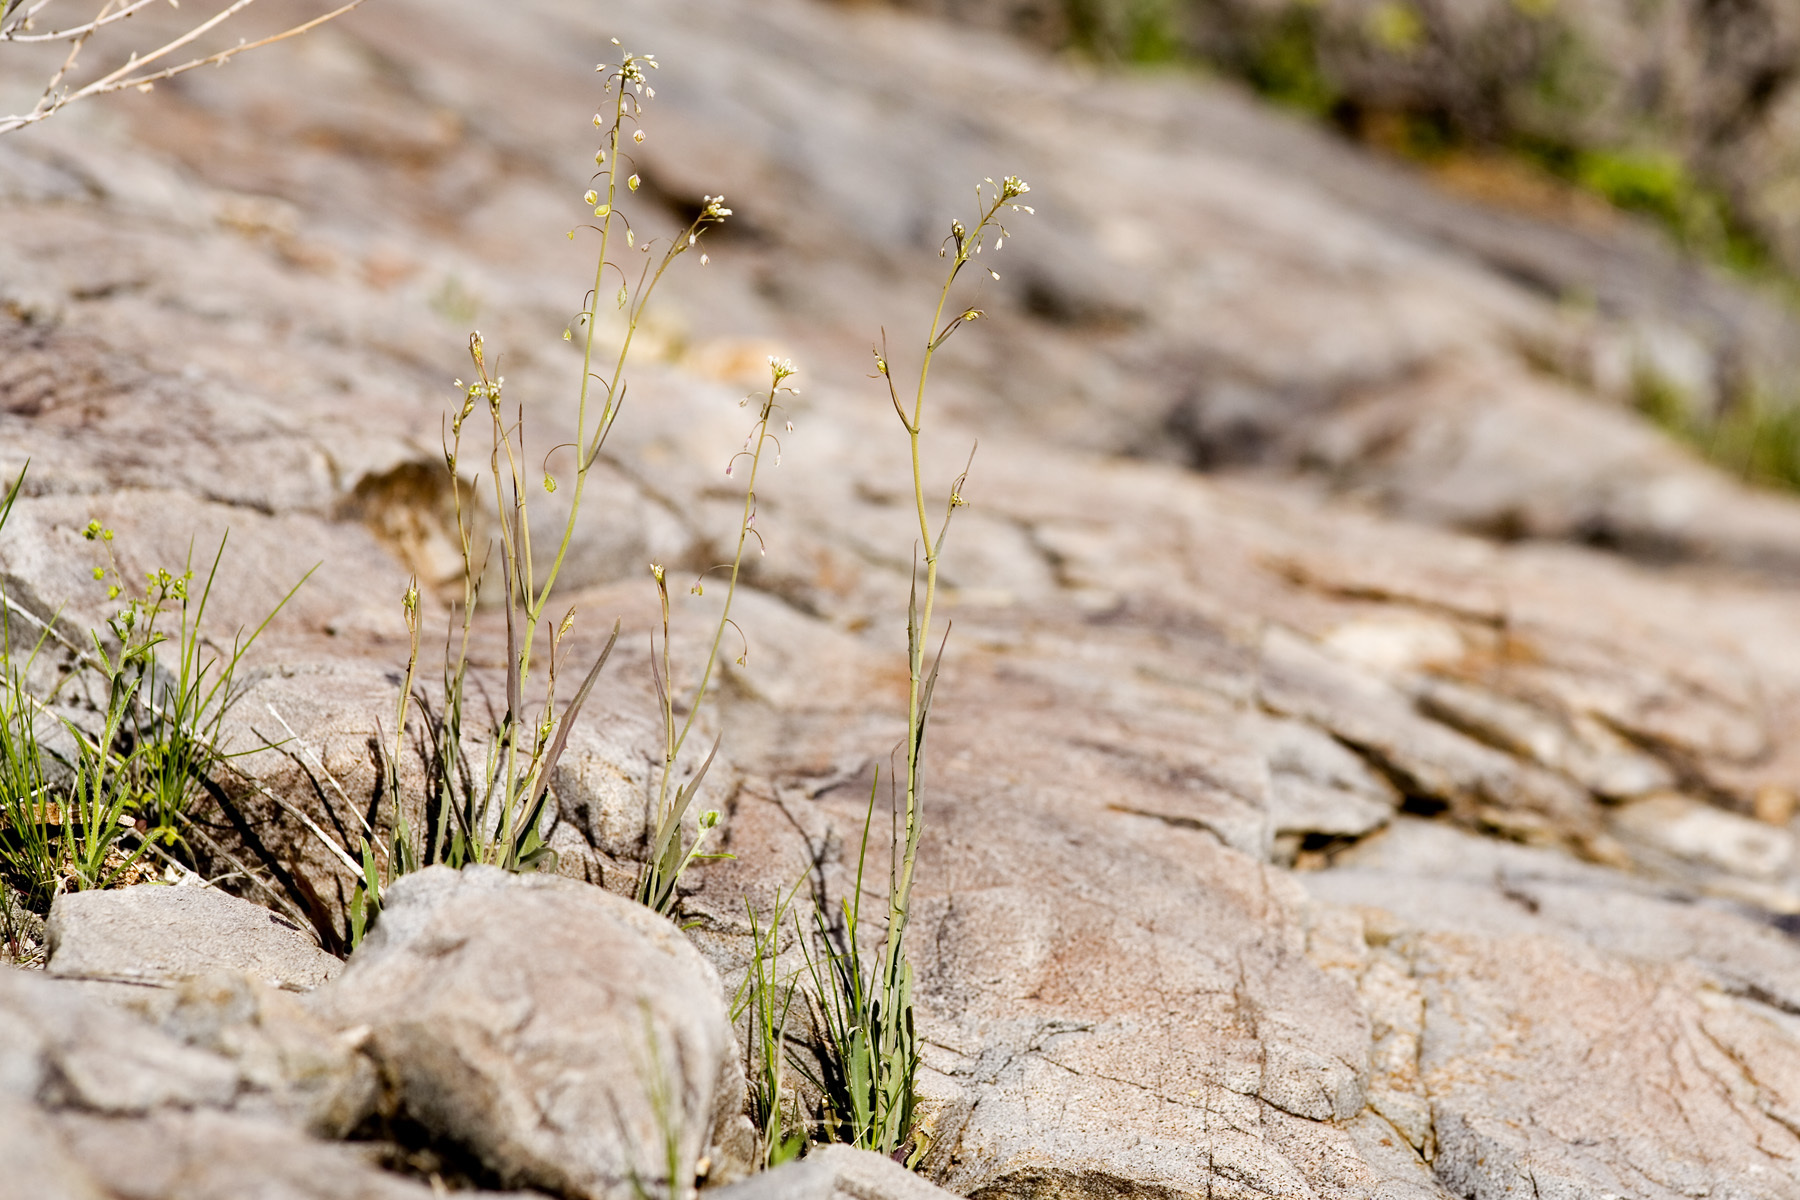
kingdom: Plantae
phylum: Tracheophyta
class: Magnoliopsida
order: Brassicales
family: Brassicaceae
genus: Thysanocarpus
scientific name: Thysanocarpus curvipes
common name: Sand fringepod
